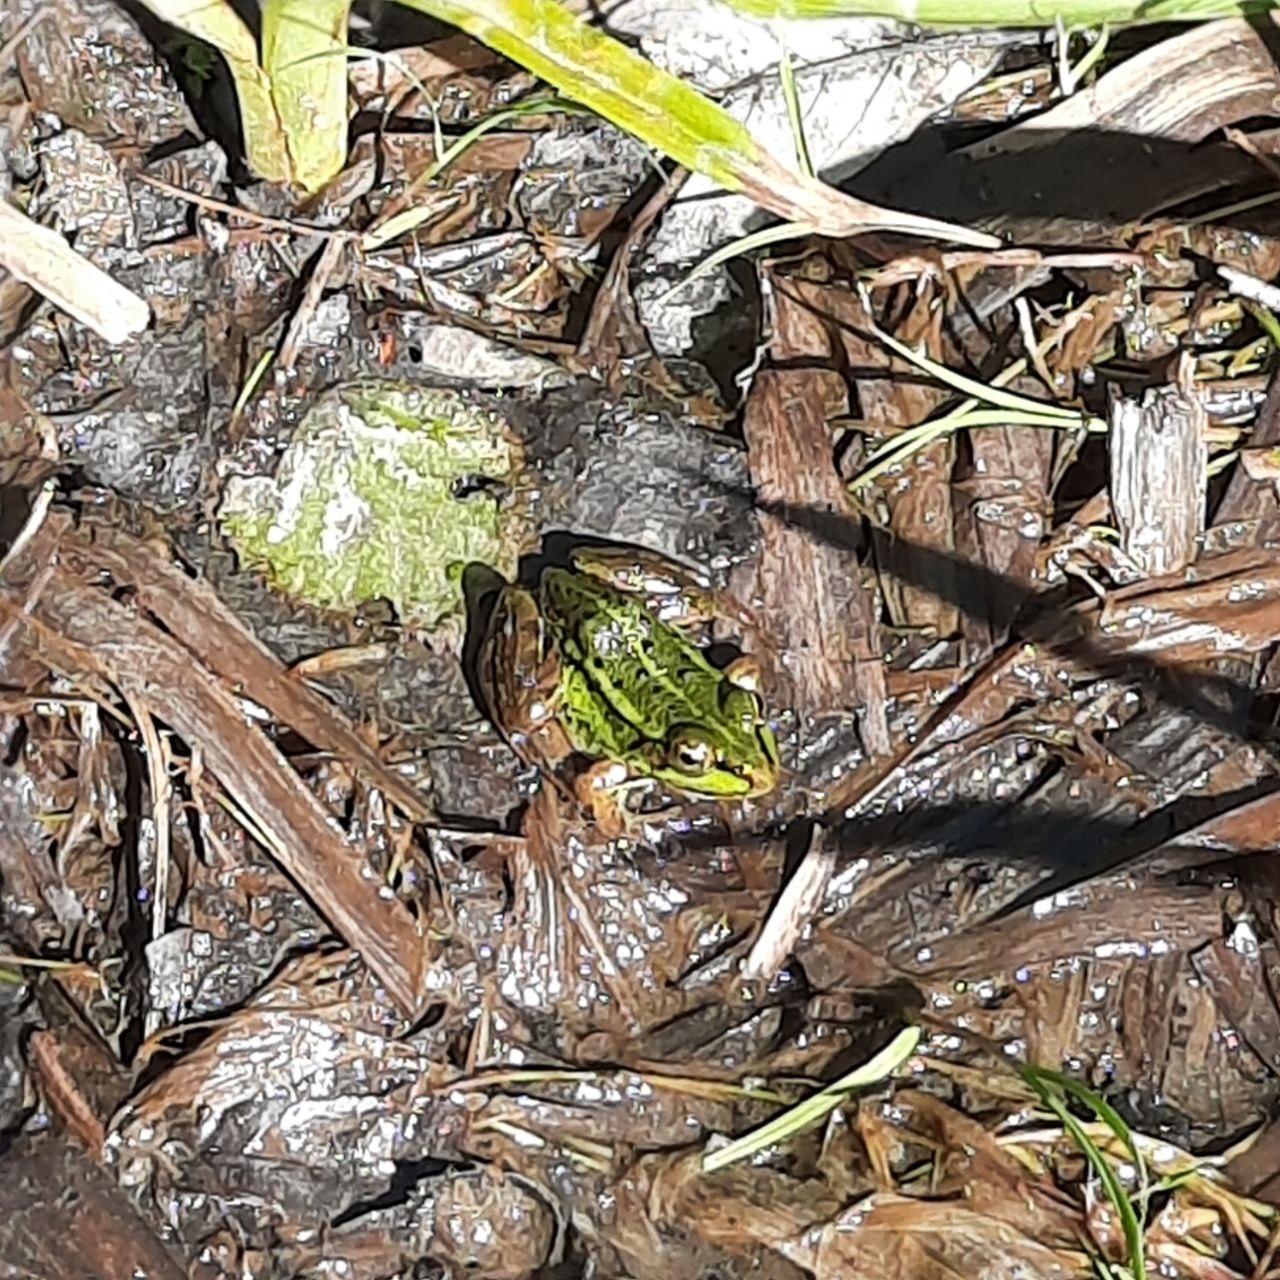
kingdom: Animalia
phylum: Chordata
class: Amphibia
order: Anura
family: Ranidae
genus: Pelophylax
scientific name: Pelophylax ridibundus
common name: Marsh frog
